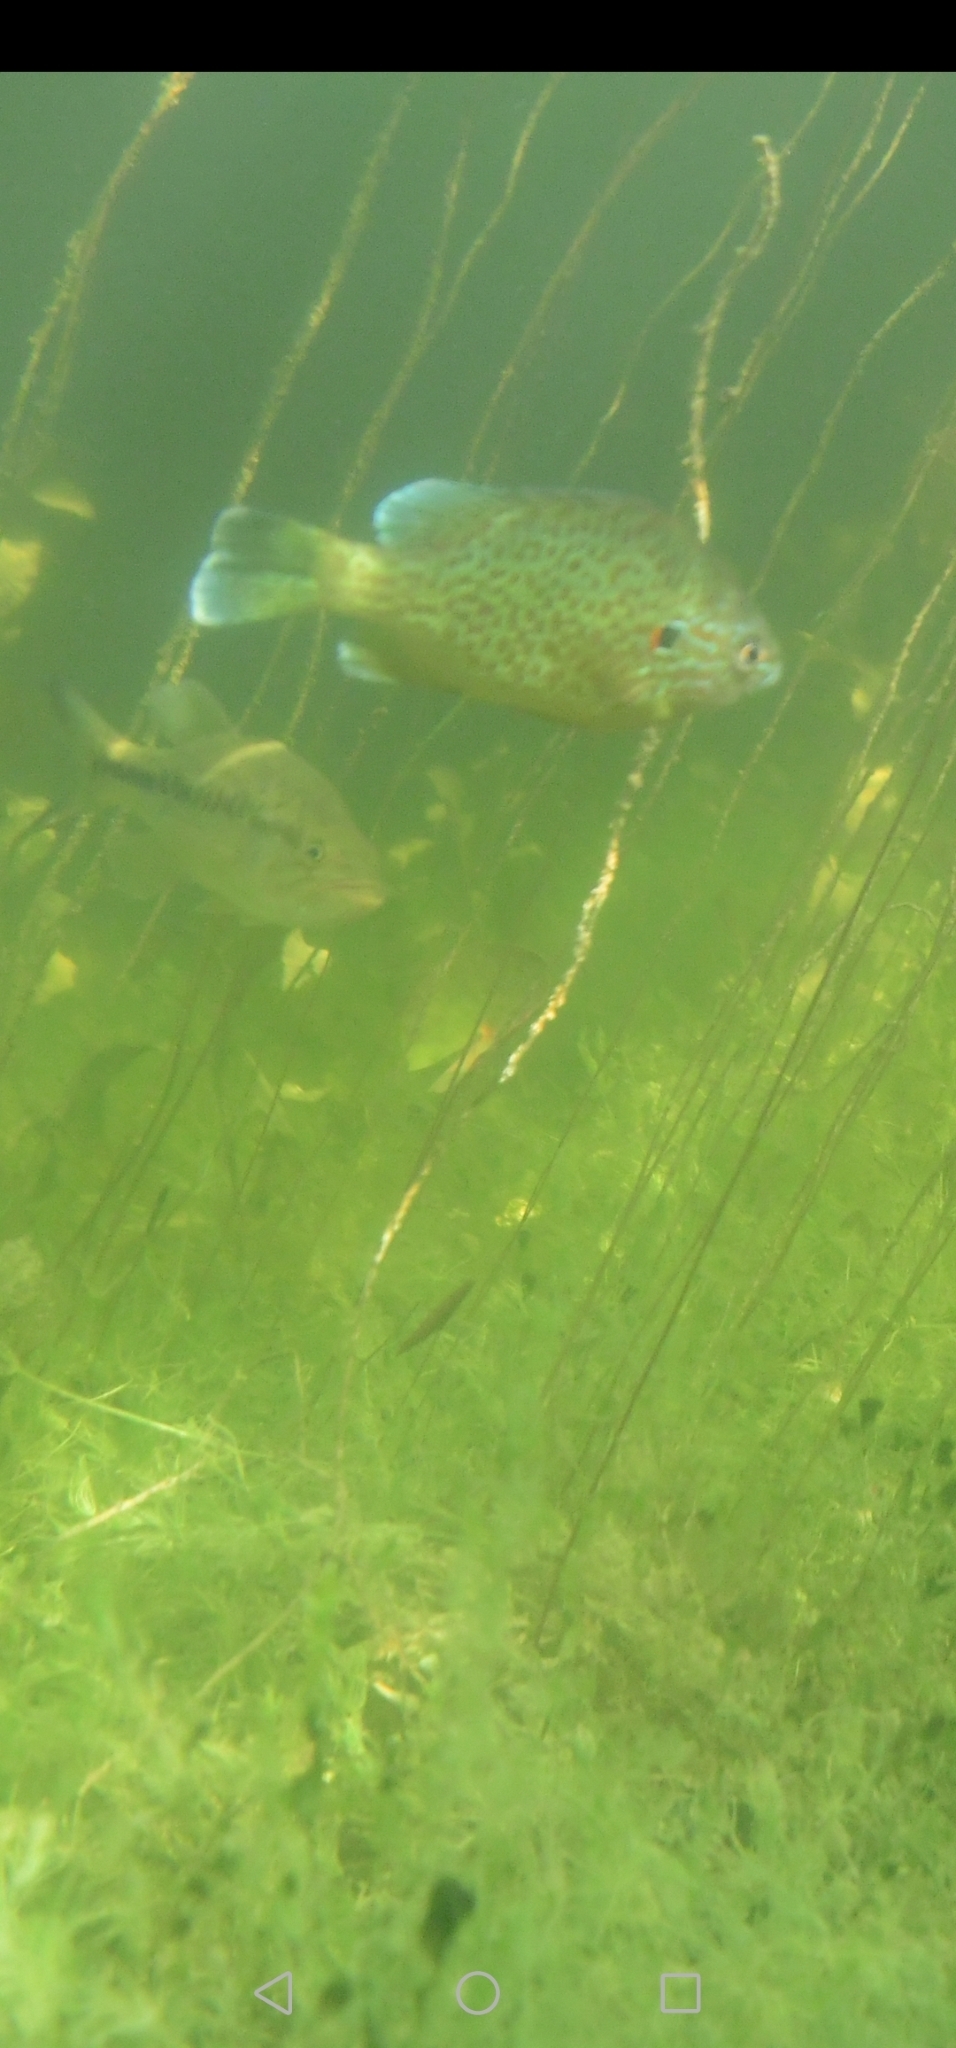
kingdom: Animalia
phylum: Chordata
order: Perciformes
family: Centrarchidae
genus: Lepomis
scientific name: Lepomis gibbosus
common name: Pumpkinseed
